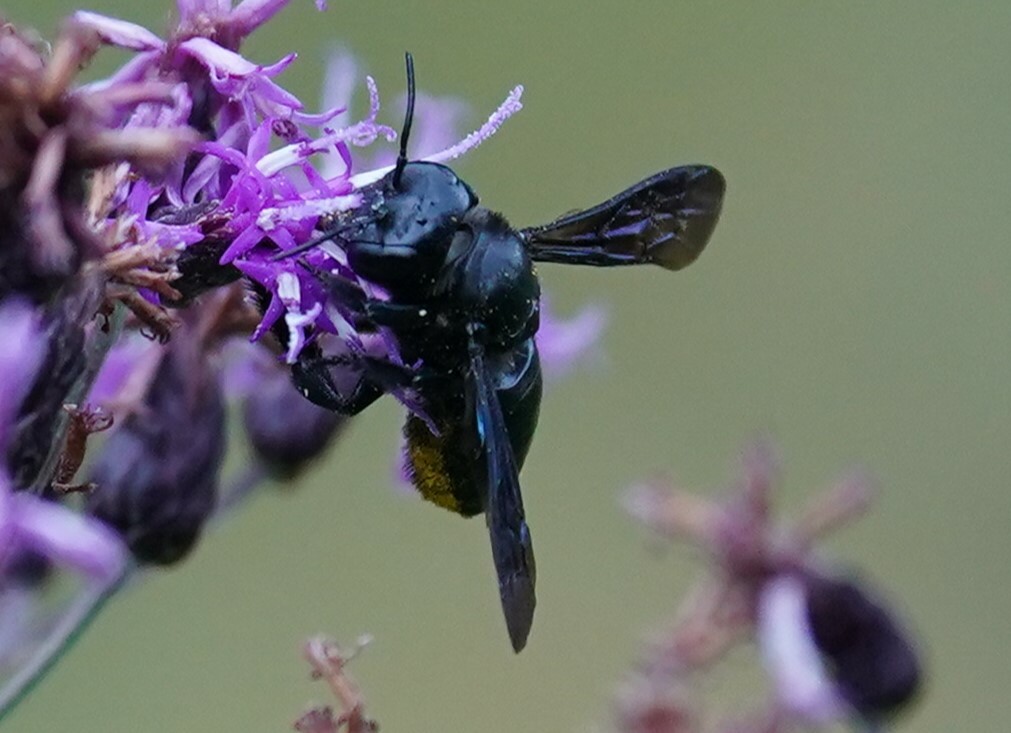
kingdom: Animalia
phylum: Arthropoda
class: Insecta
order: Hymenoptera
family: Megachilidae
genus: Megachile
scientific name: Megachile xylocopoides
